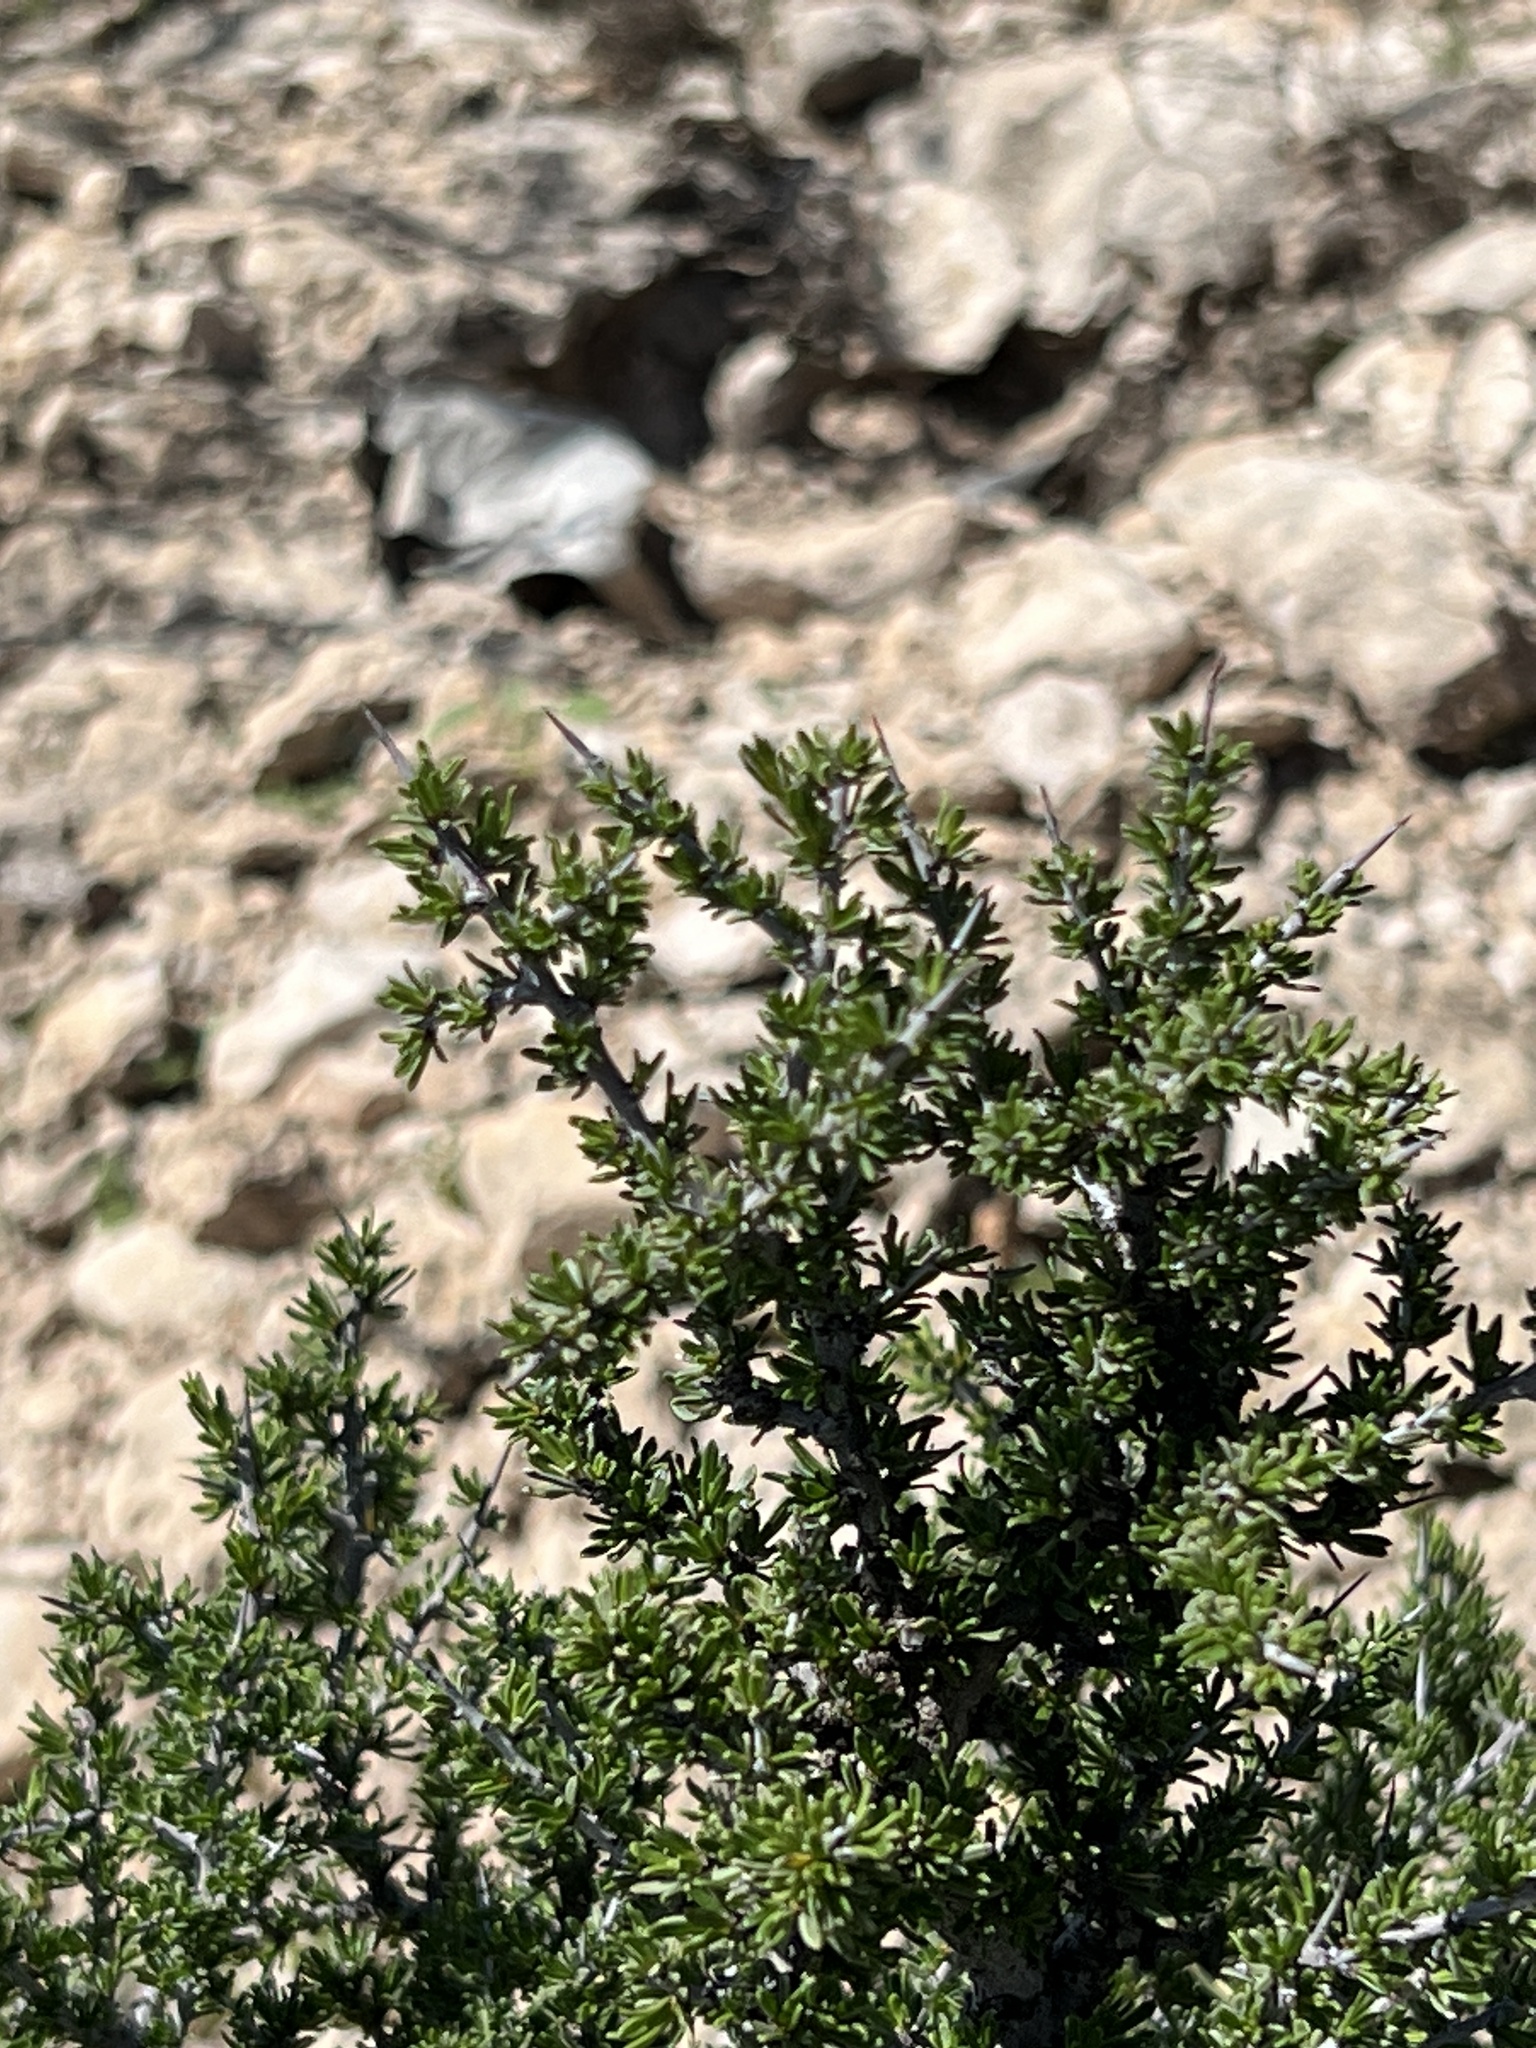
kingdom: Plantae
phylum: Tracheophyta
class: Magnoliopsida
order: Rosales
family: Rhamnaceae
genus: Condalia
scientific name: Condalia ericoides
